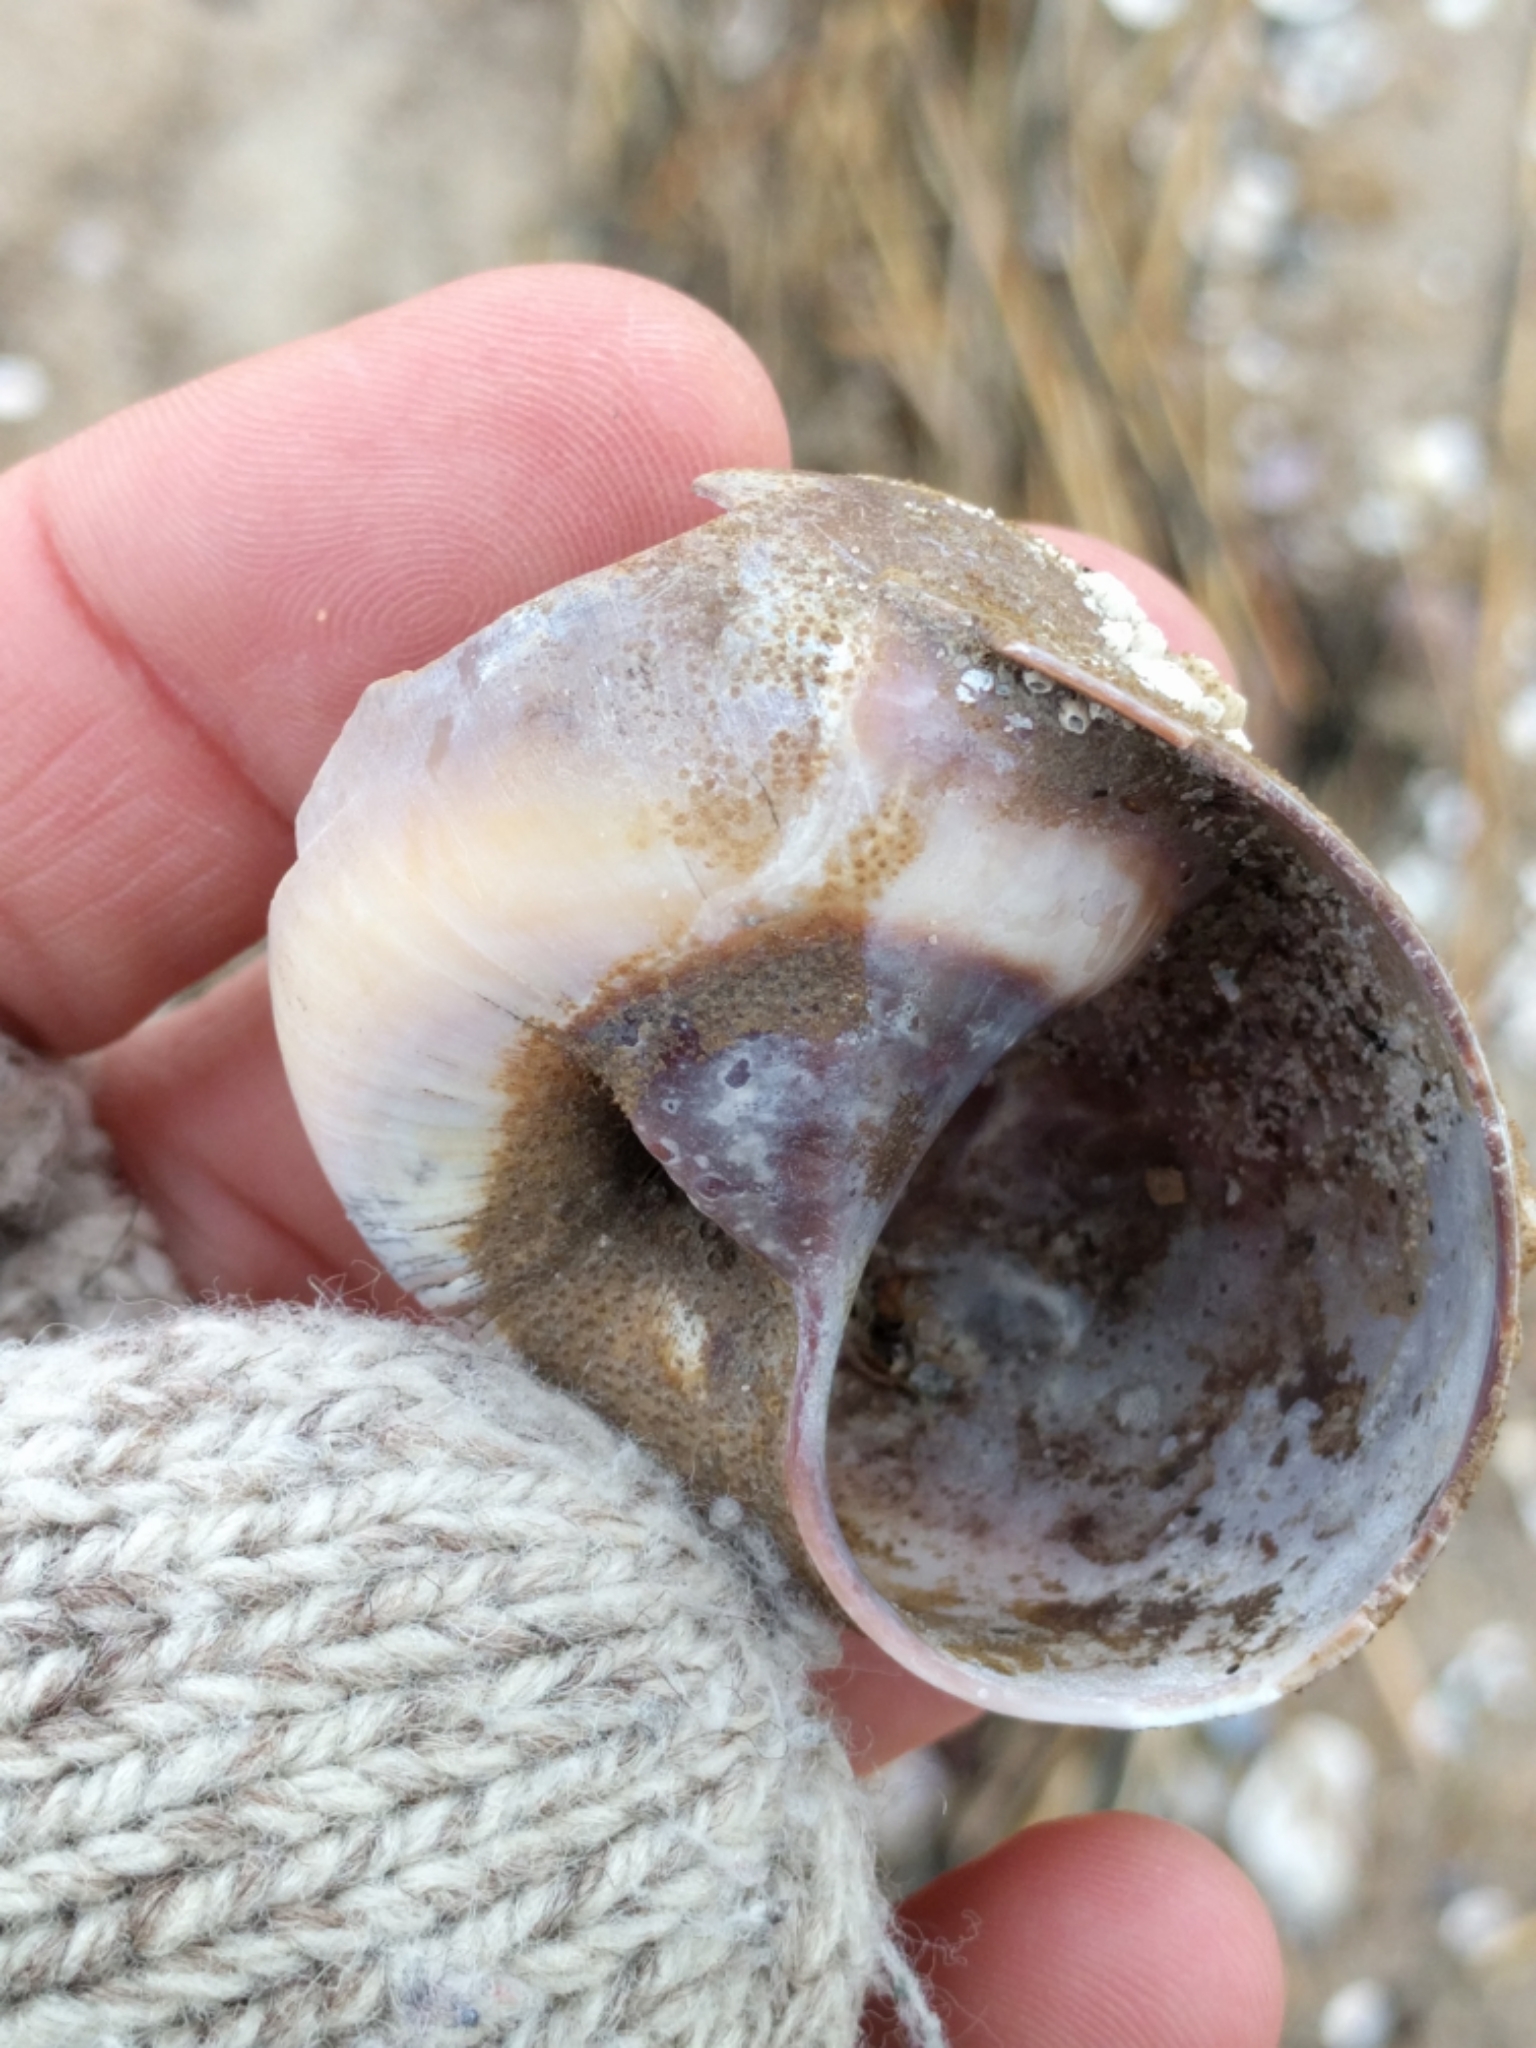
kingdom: Animalia
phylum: Mollusca
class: Gastropoda
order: Littorinimorpha
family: Naticidae
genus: Neverita
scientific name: Neverita duplicata
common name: Lobed moonsnail
